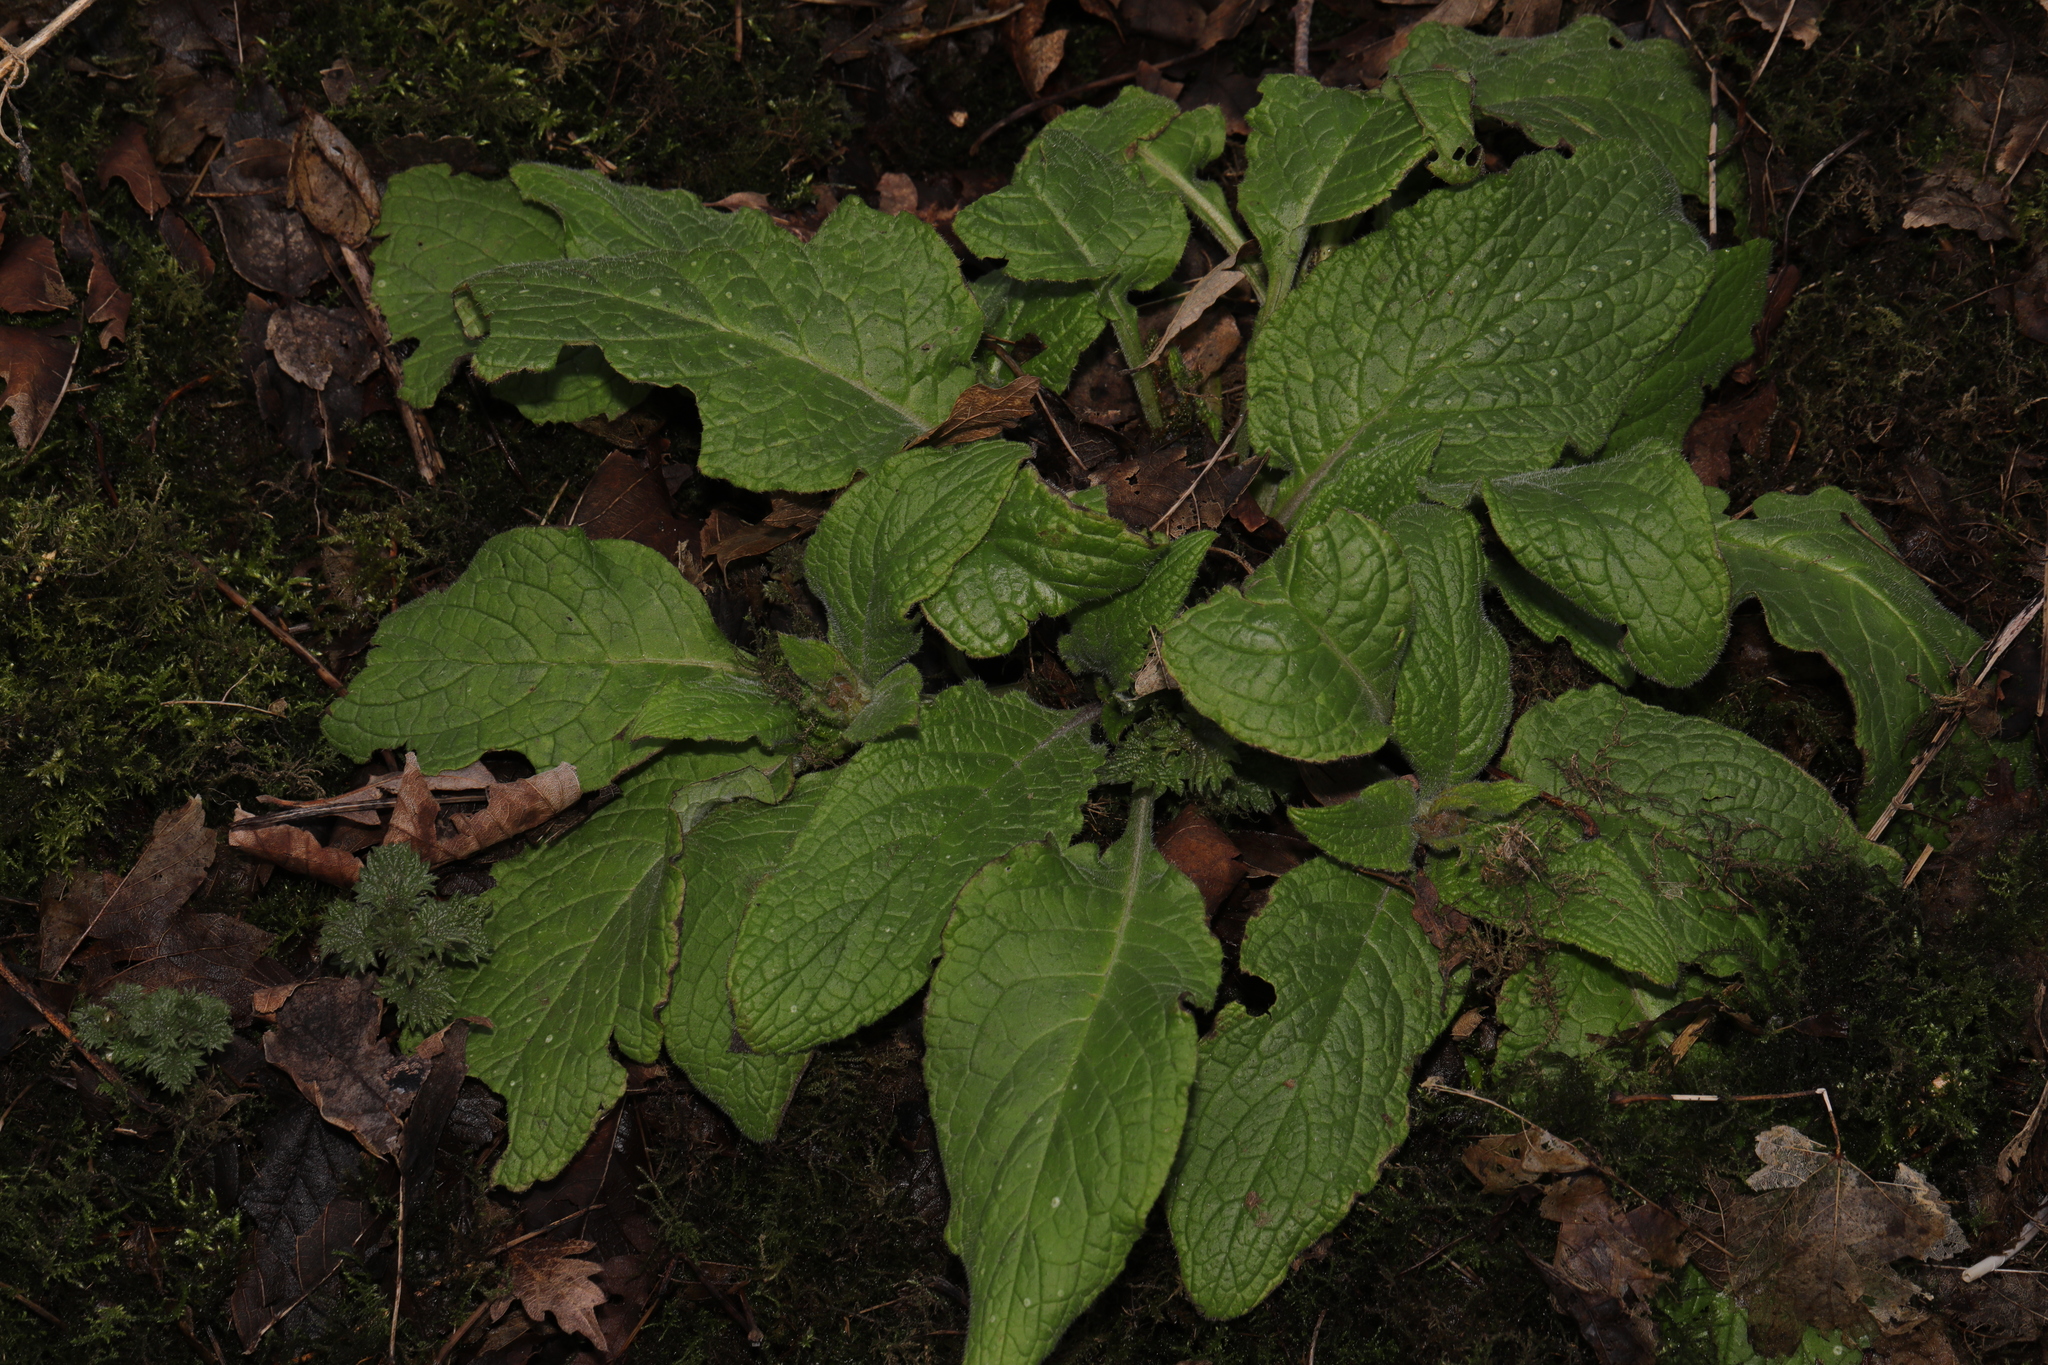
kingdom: Plantae
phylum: Tracheophyta
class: Magnoliopsida
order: Boraginales
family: Boraginaceae
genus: Pentaglottis
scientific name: Pentaglottis sempervirens
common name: Green alkanet
